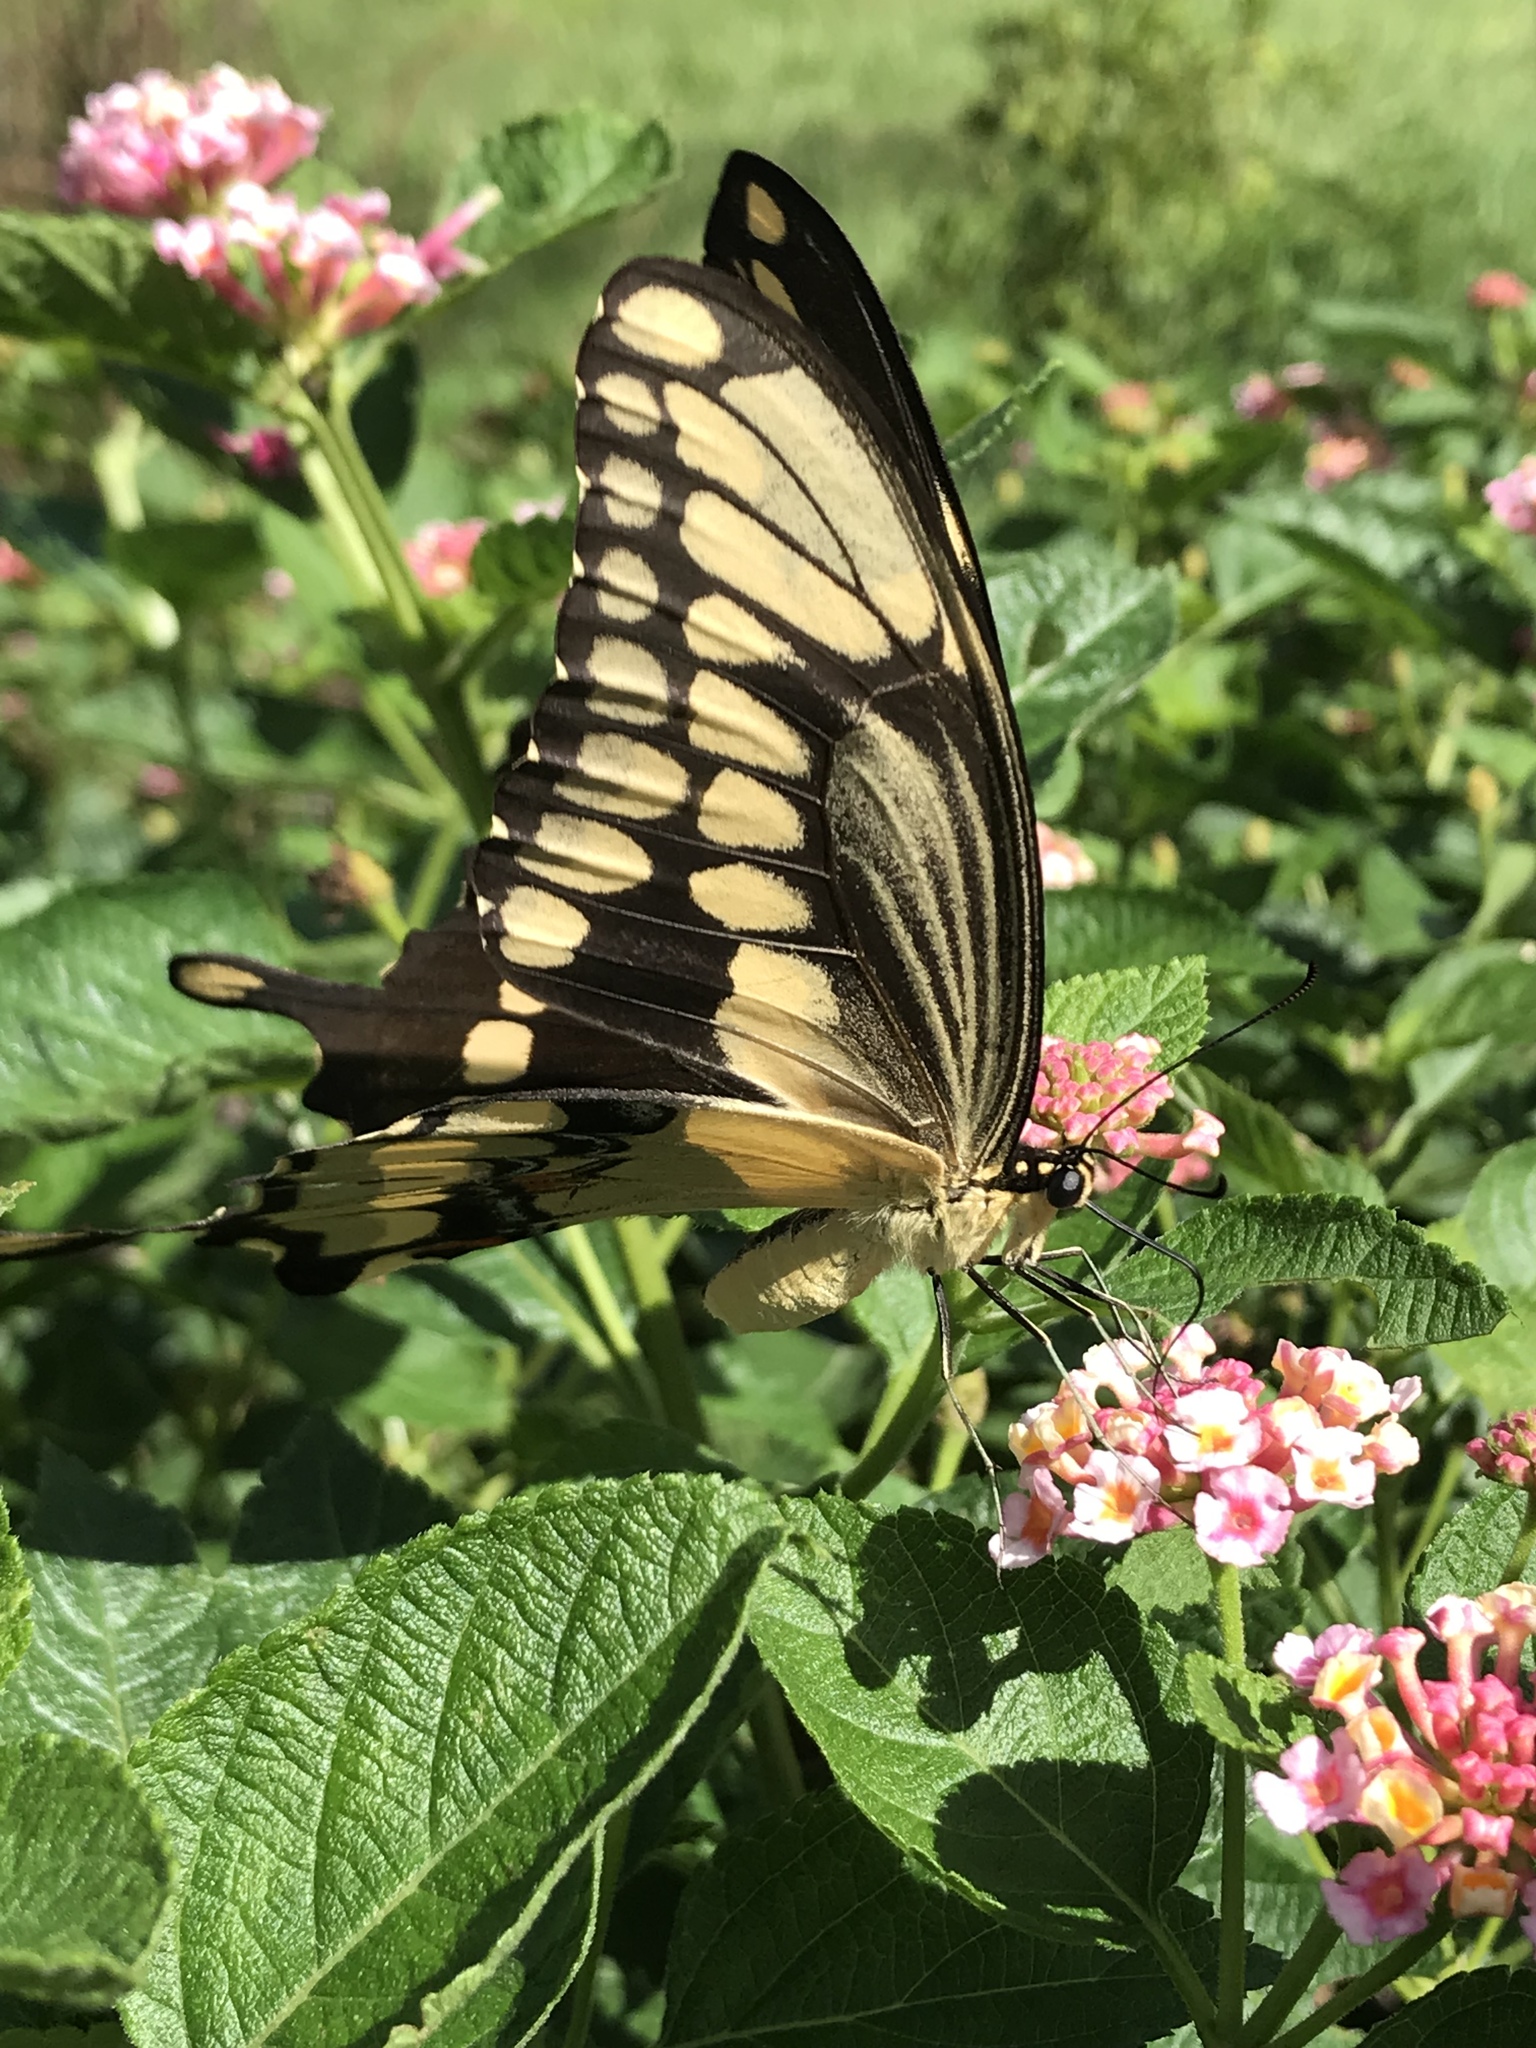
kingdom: Animalia
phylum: Arthropoda
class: Insecta
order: Lepidoptera
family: Papilionidae
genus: Papilio
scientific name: Papilio cresphontes
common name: Giant swallowtail
